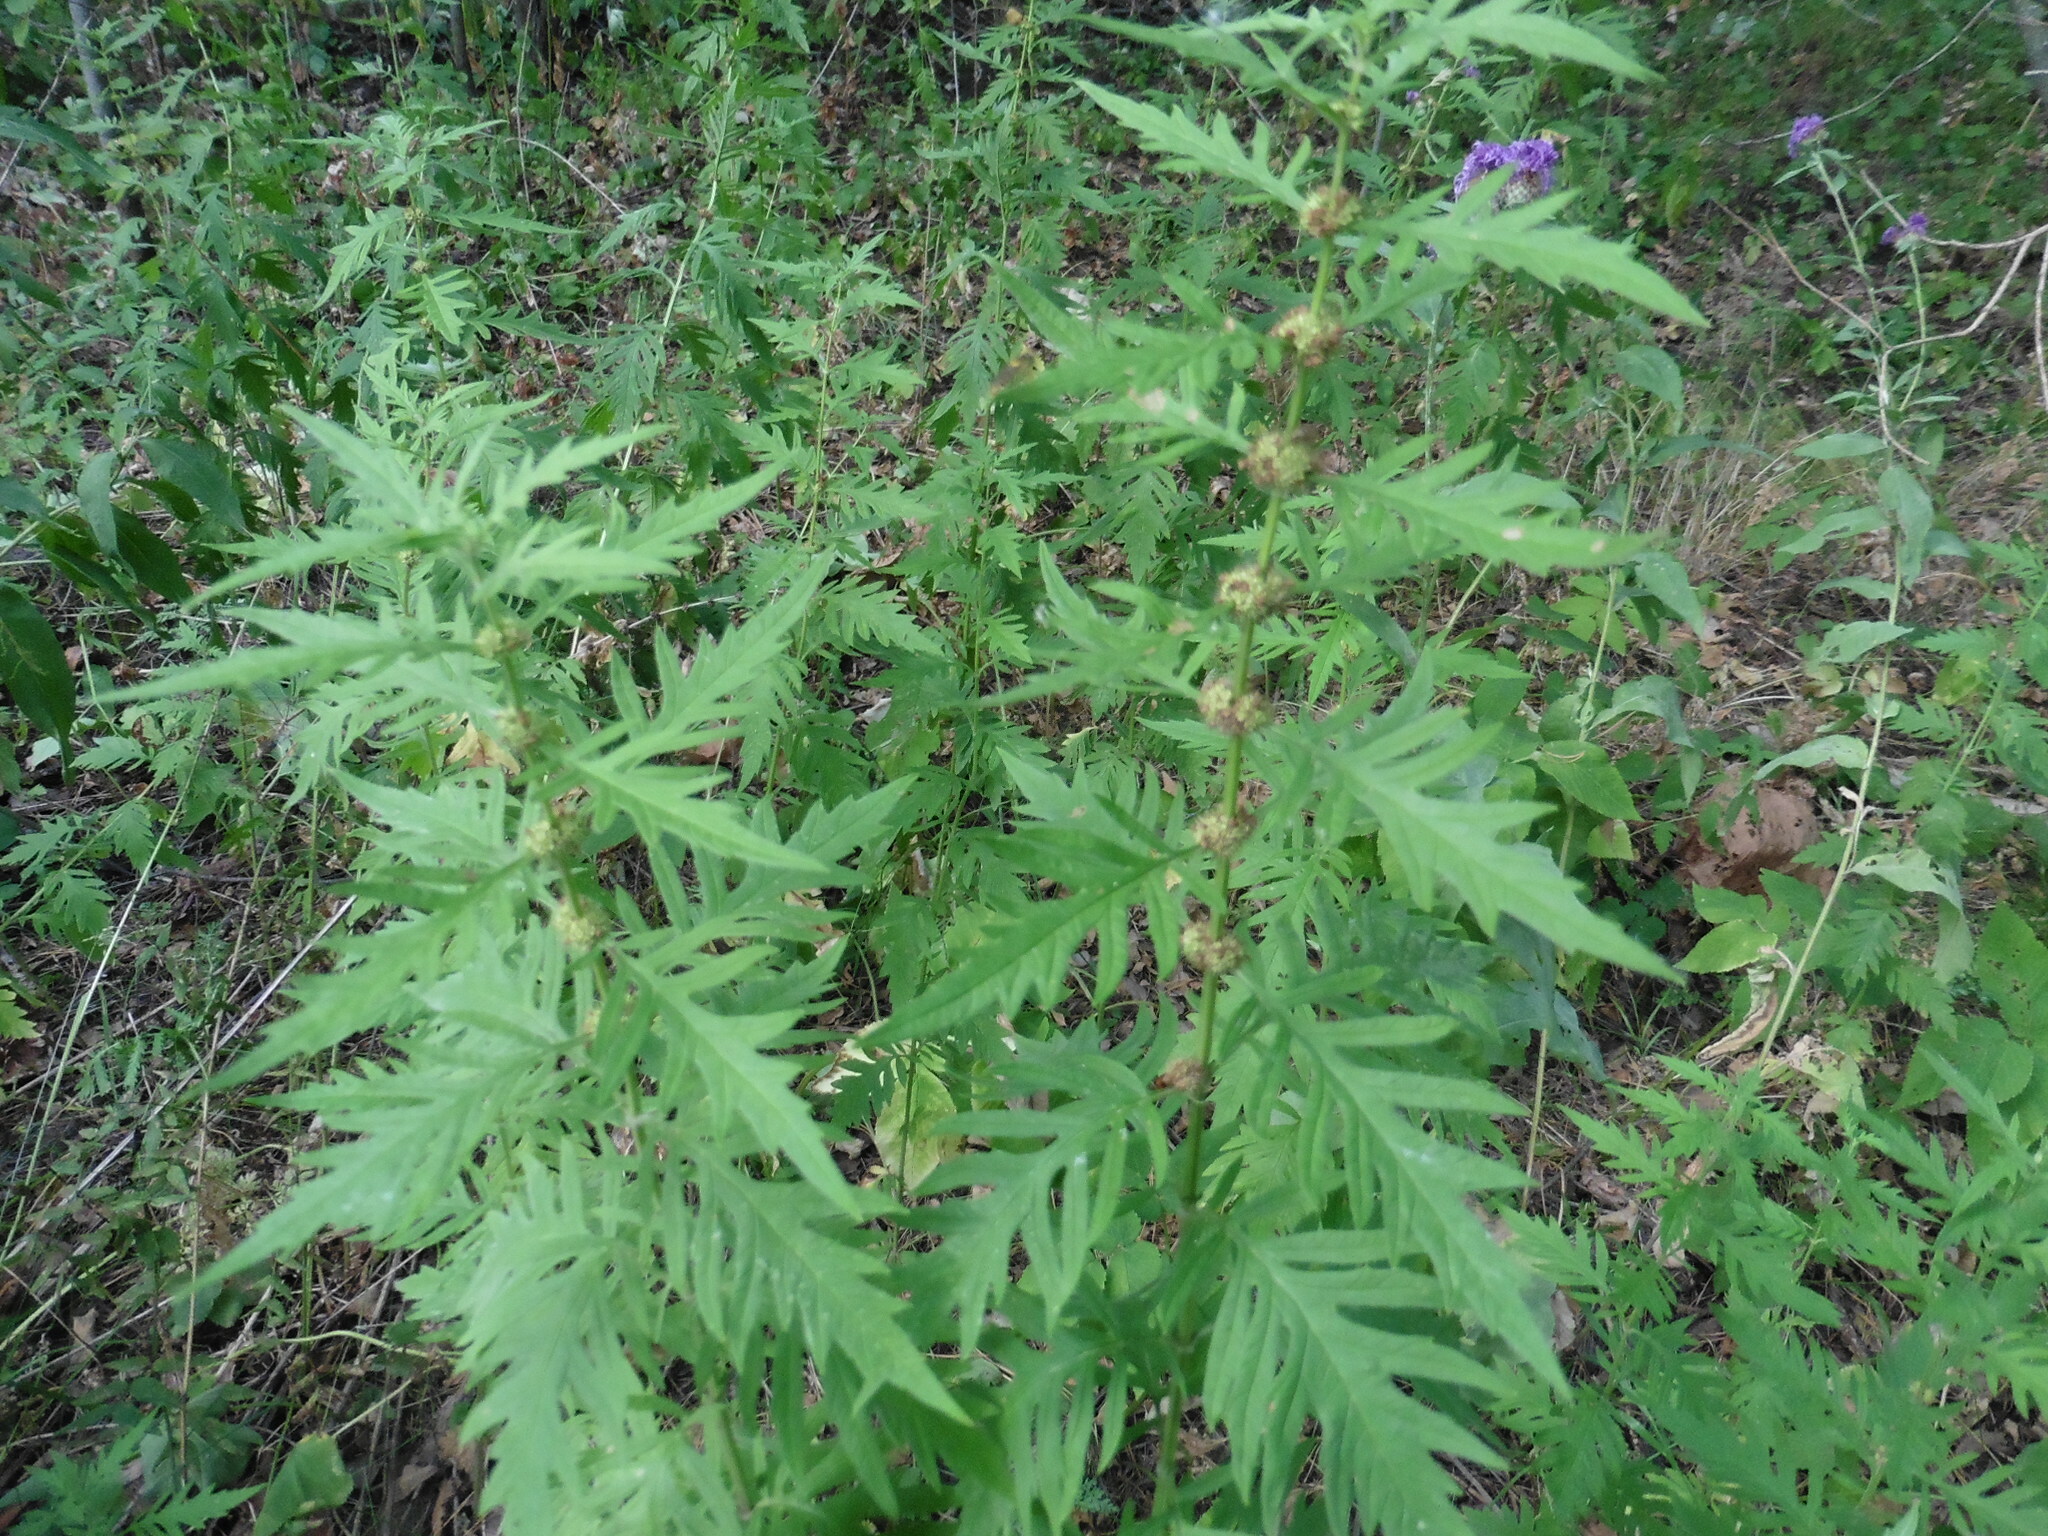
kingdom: Plantae
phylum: Tracheophyta
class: Magnoliopsida
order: Lamiales
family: Lamiaceae
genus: Lycopus
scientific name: Lycopus exaltatus
